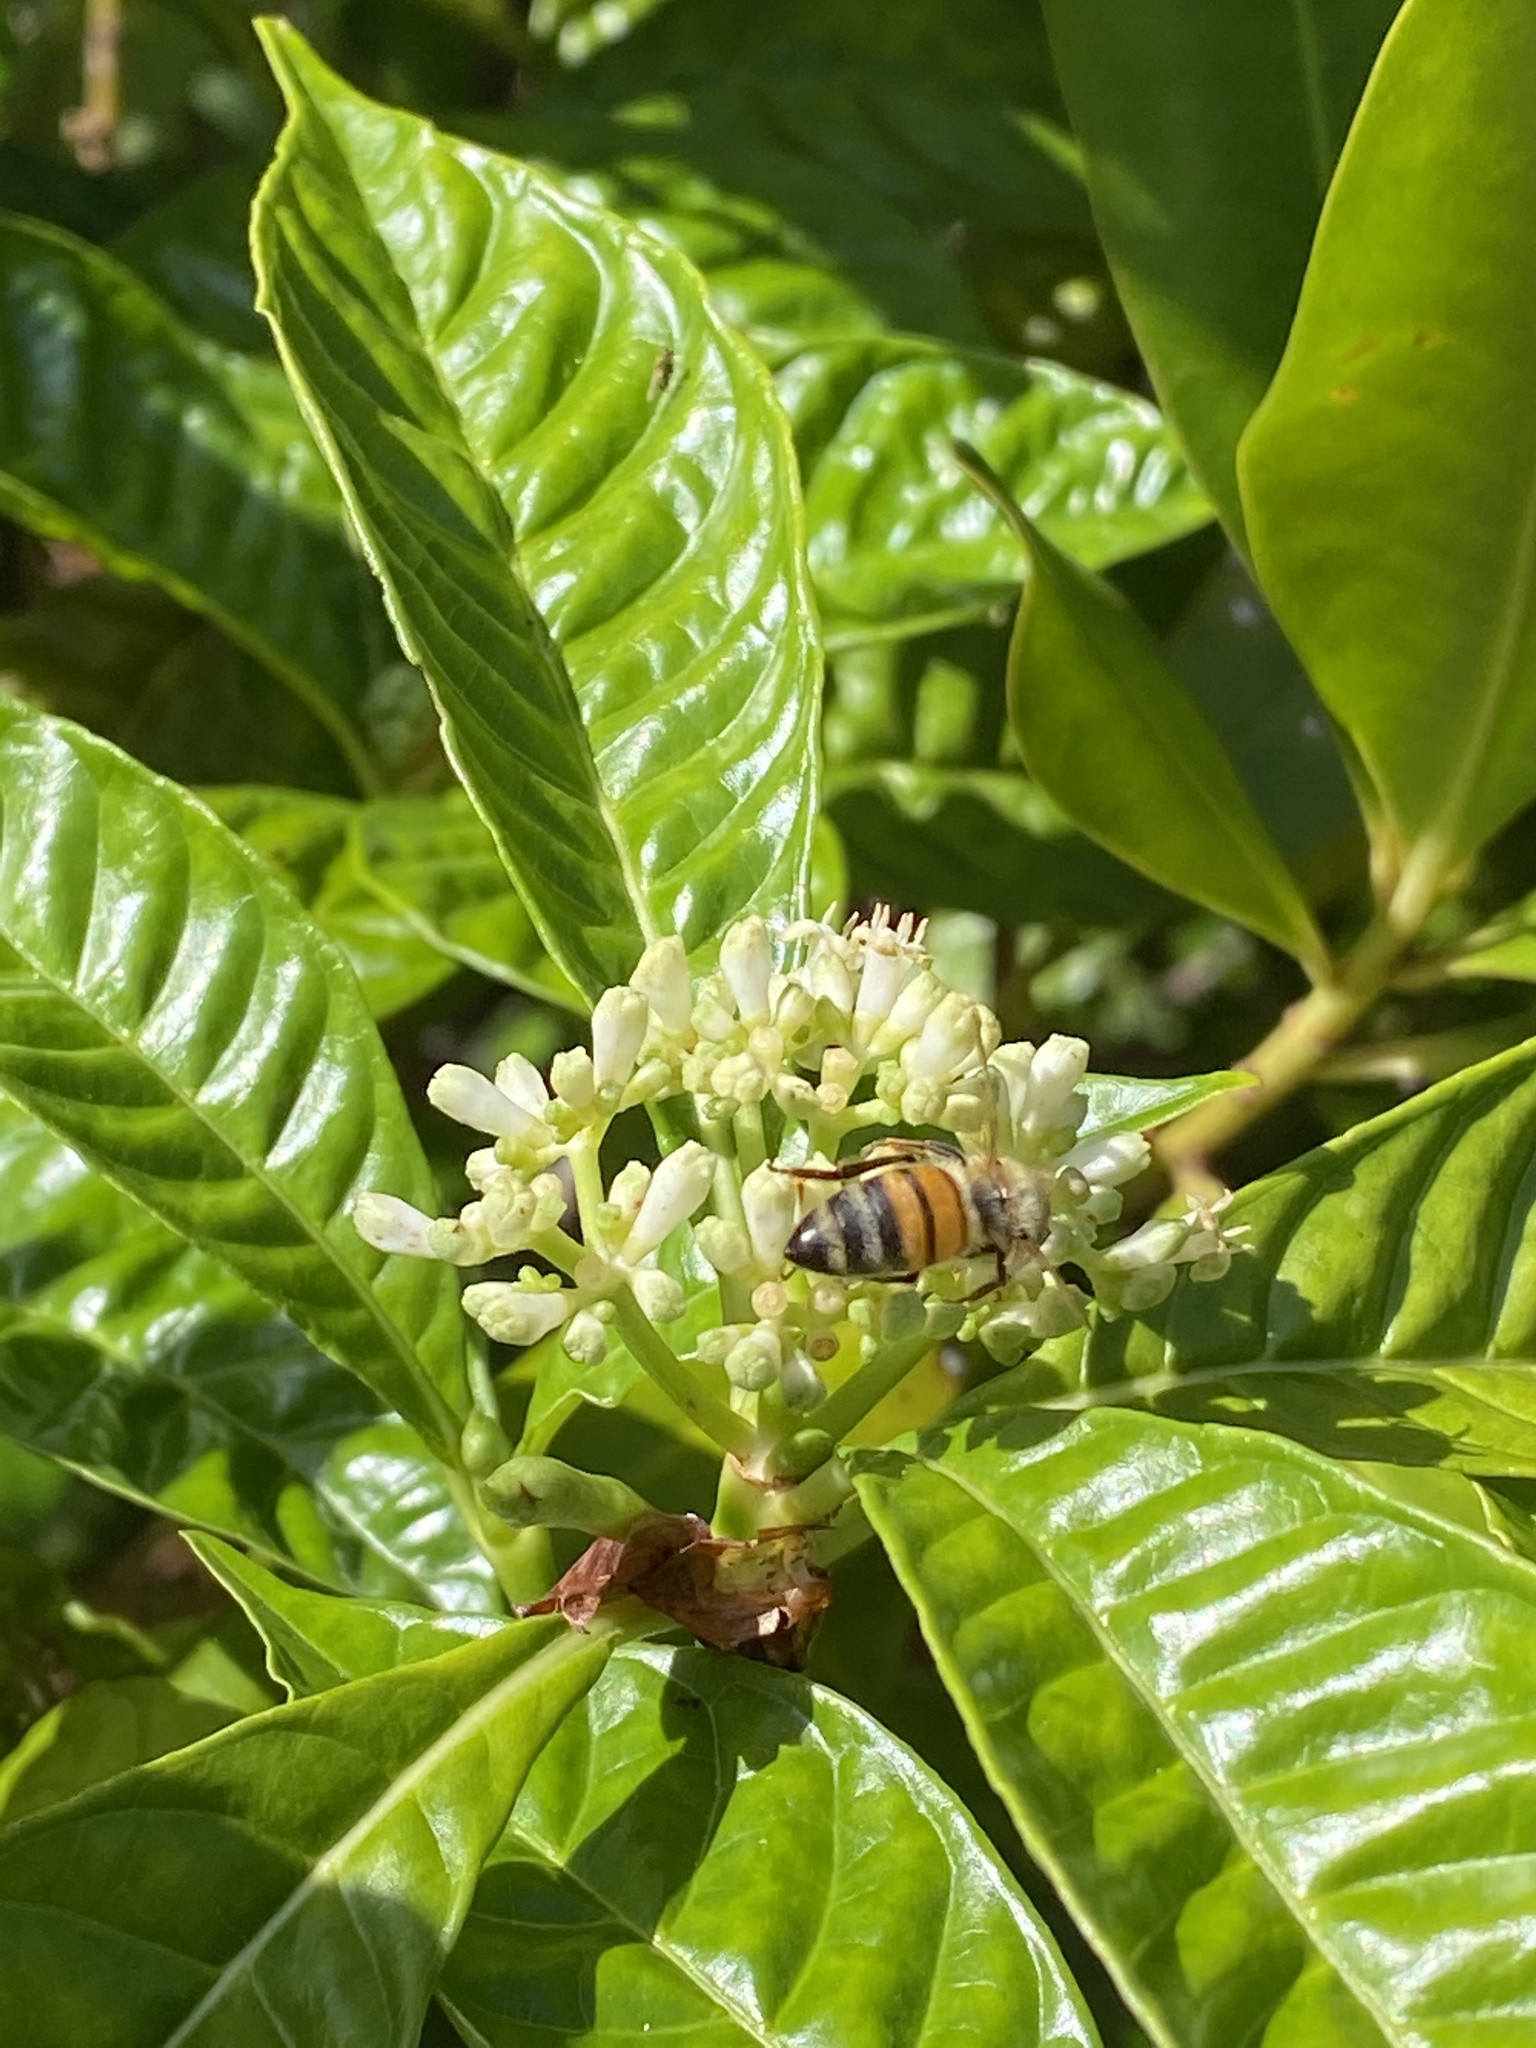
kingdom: Plantae
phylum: Tracheophyta
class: Magnoliopsida
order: Gentianales
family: Rubiaceae
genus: Psychotria
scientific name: Psychotria nervosa
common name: Bastard cankerberry
